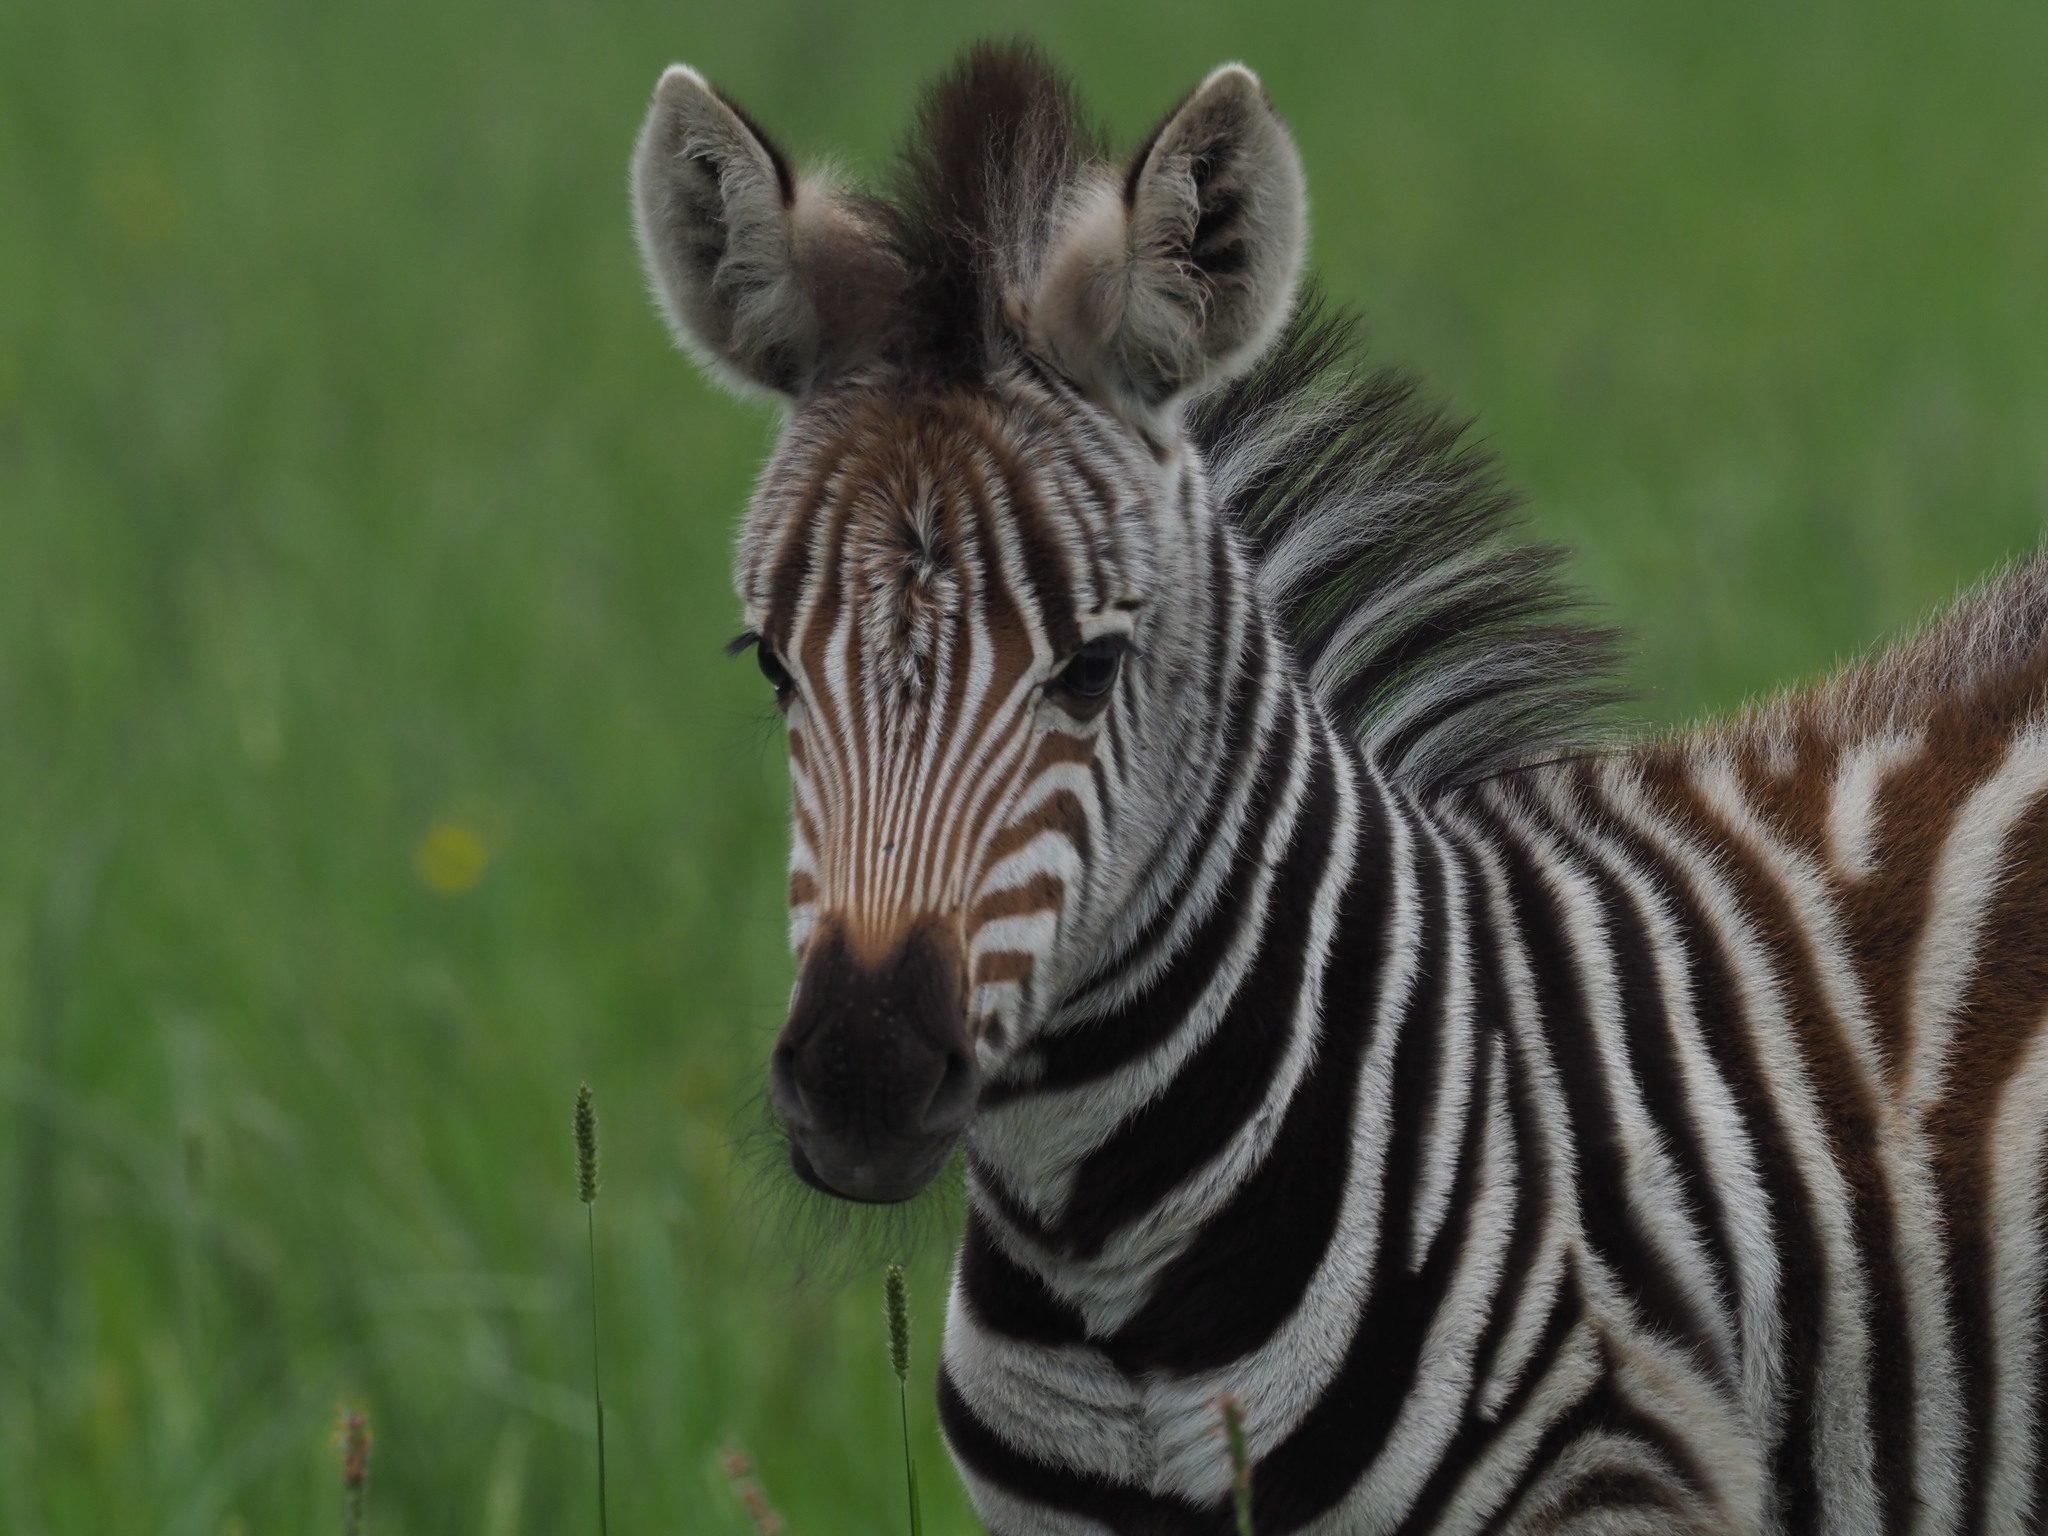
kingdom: Animalia
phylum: Chordata
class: Mammalia
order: Perissodactyla
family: Equidae
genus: Equus
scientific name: Equus quagga
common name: Plains zebra
